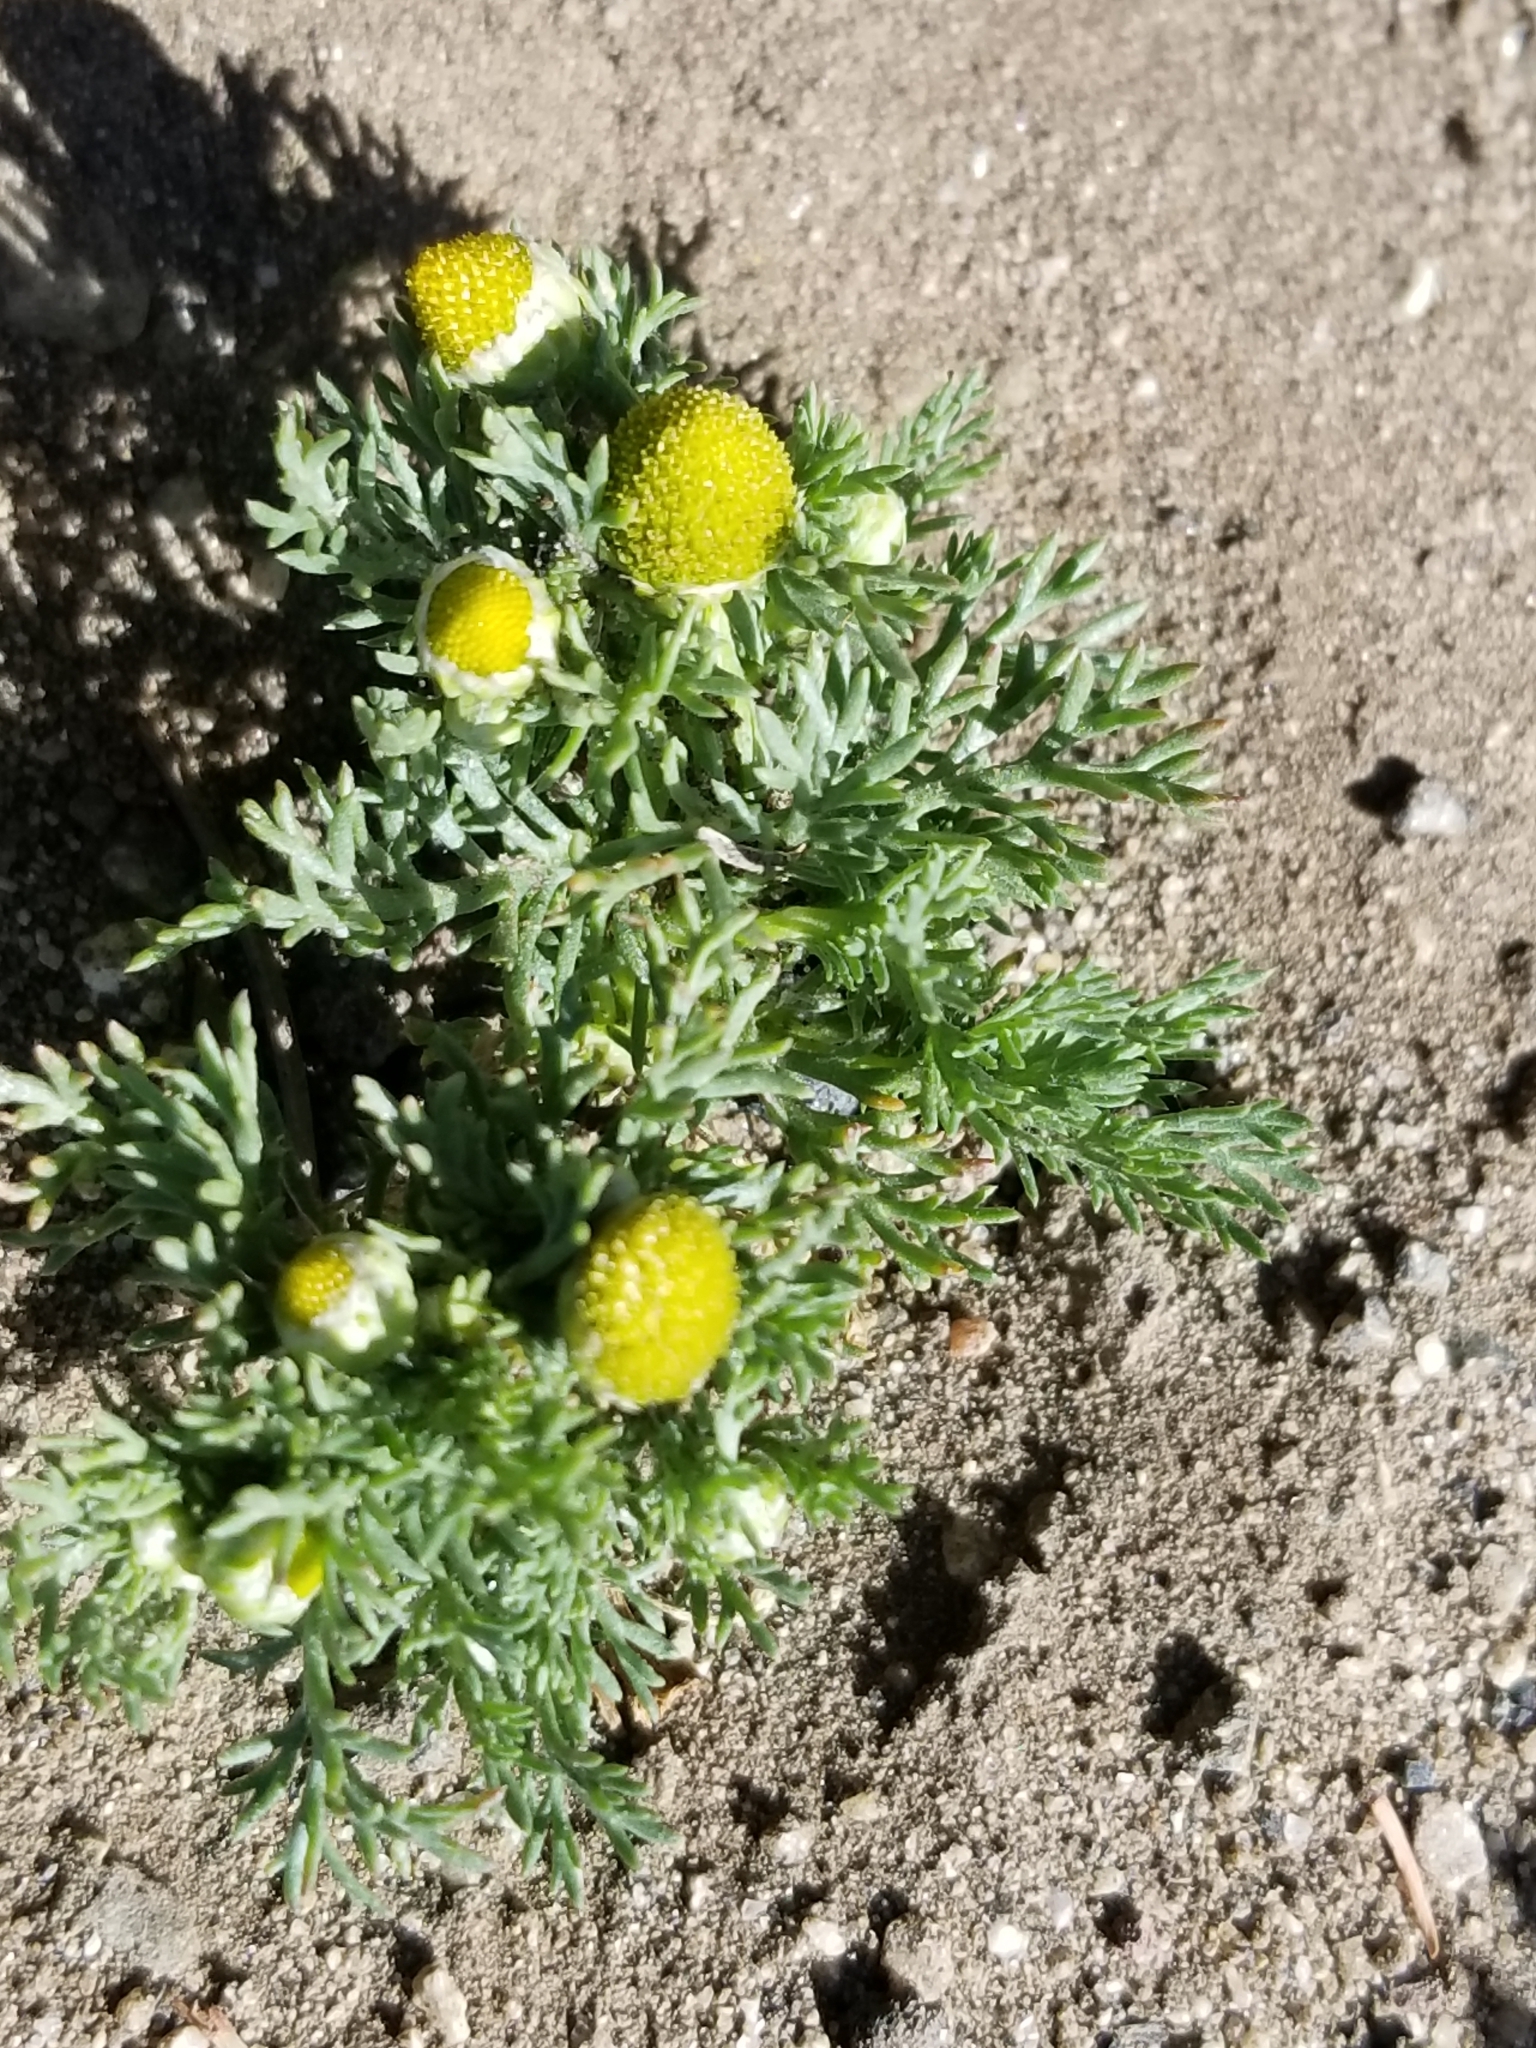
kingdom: Plantae
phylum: Tracheophyta
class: Magnoliopsida
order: Asterales
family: Asteraceae
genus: Matricaria
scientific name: Matricaria discoidea
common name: Disc mayweed
